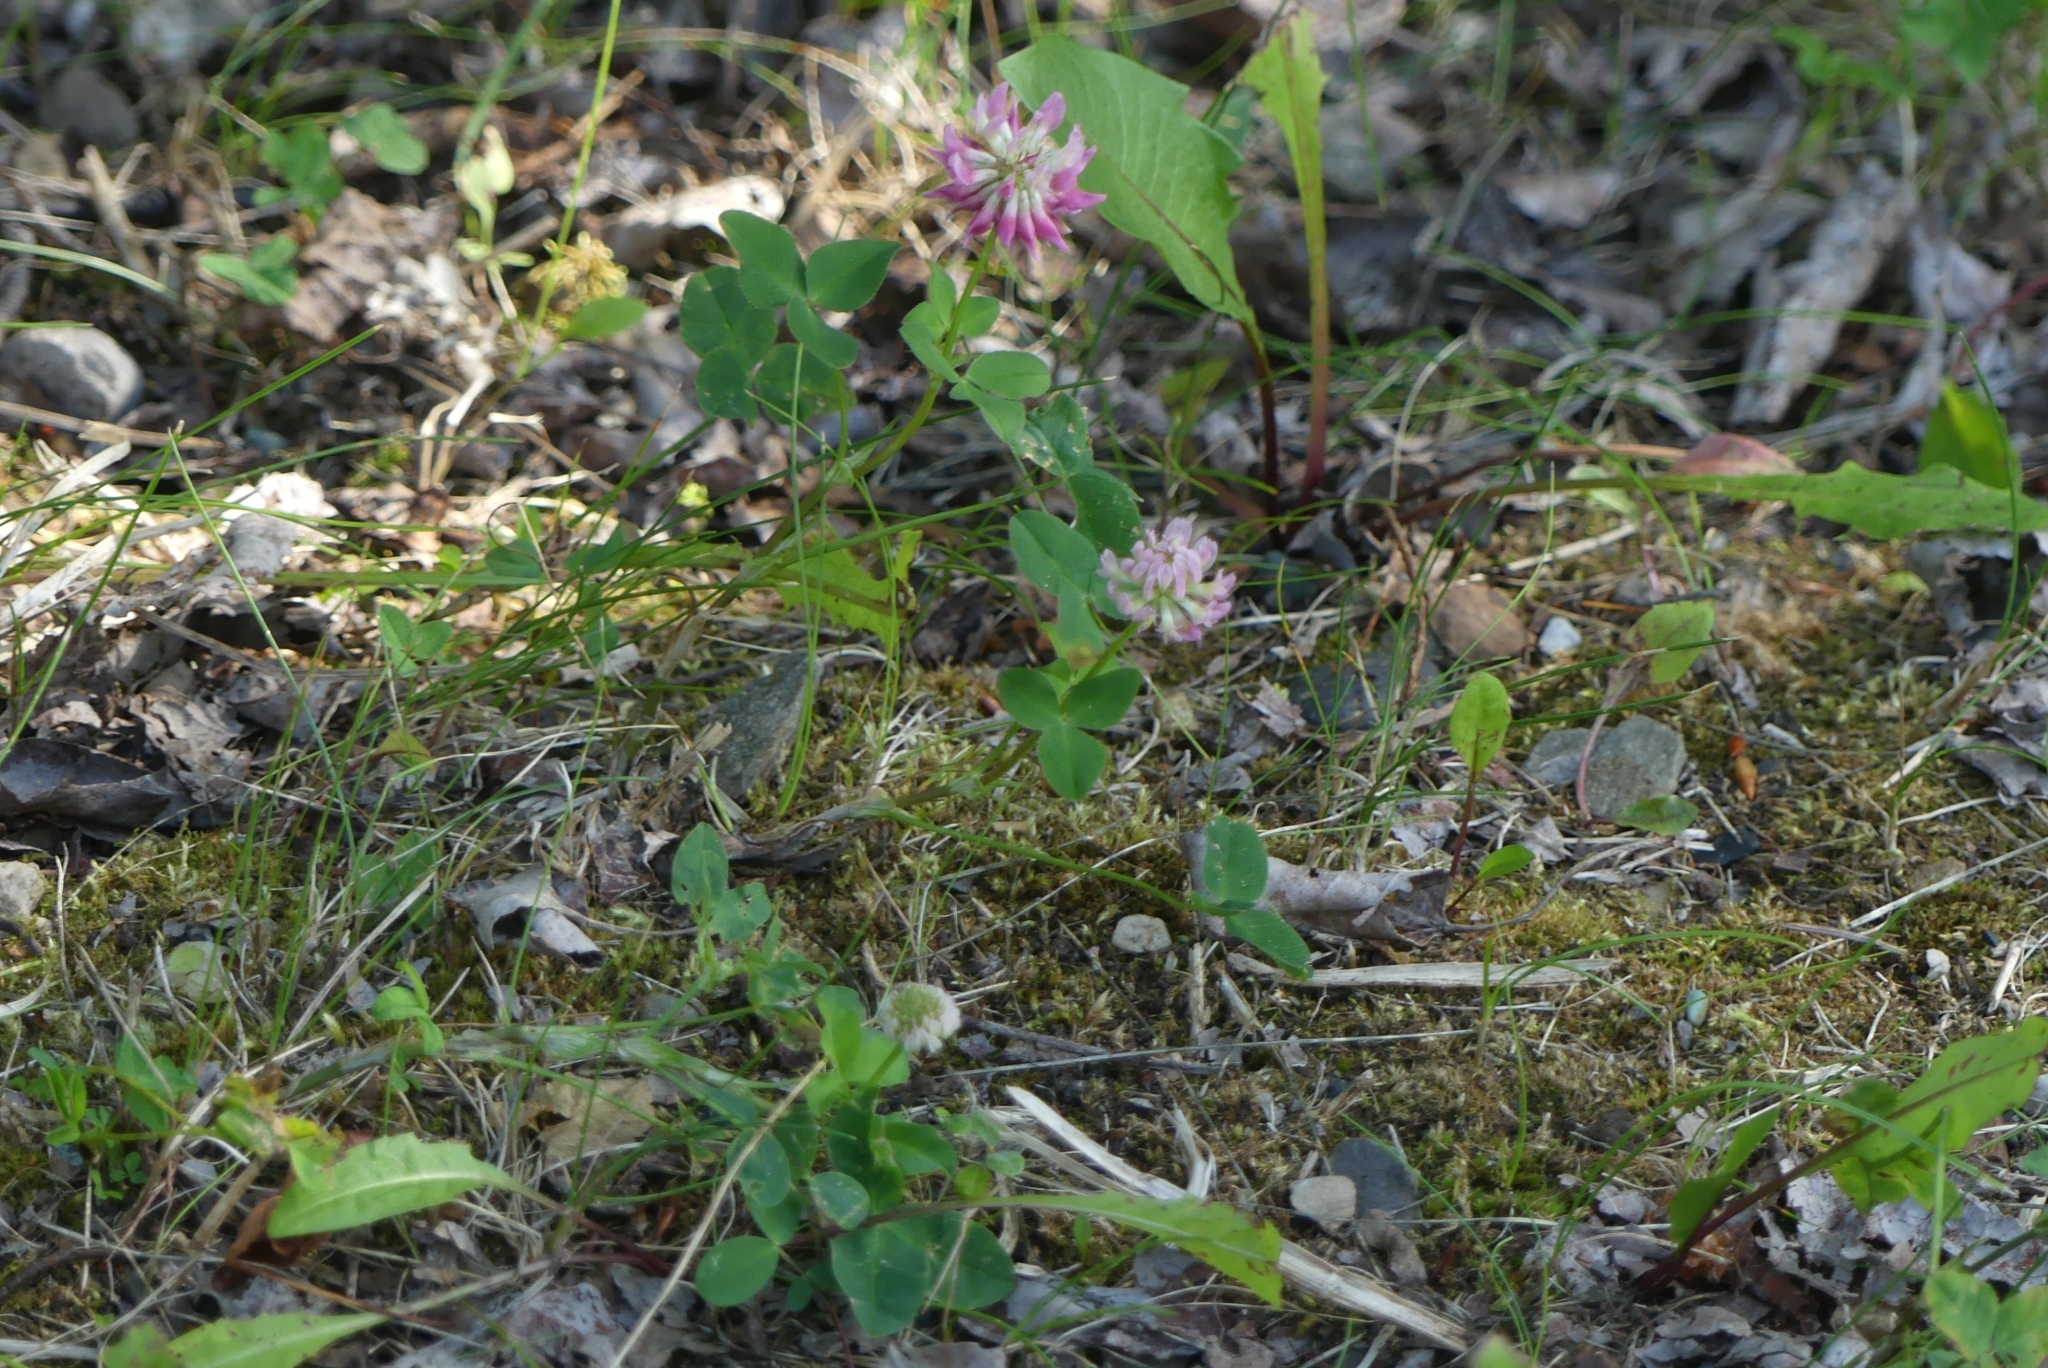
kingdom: Plantae
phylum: Tracheophyta
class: Magnoliopsida
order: Fabales
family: Fabaceae
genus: Trifolium
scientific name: Trifolium hybridum
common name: Alsike clover
